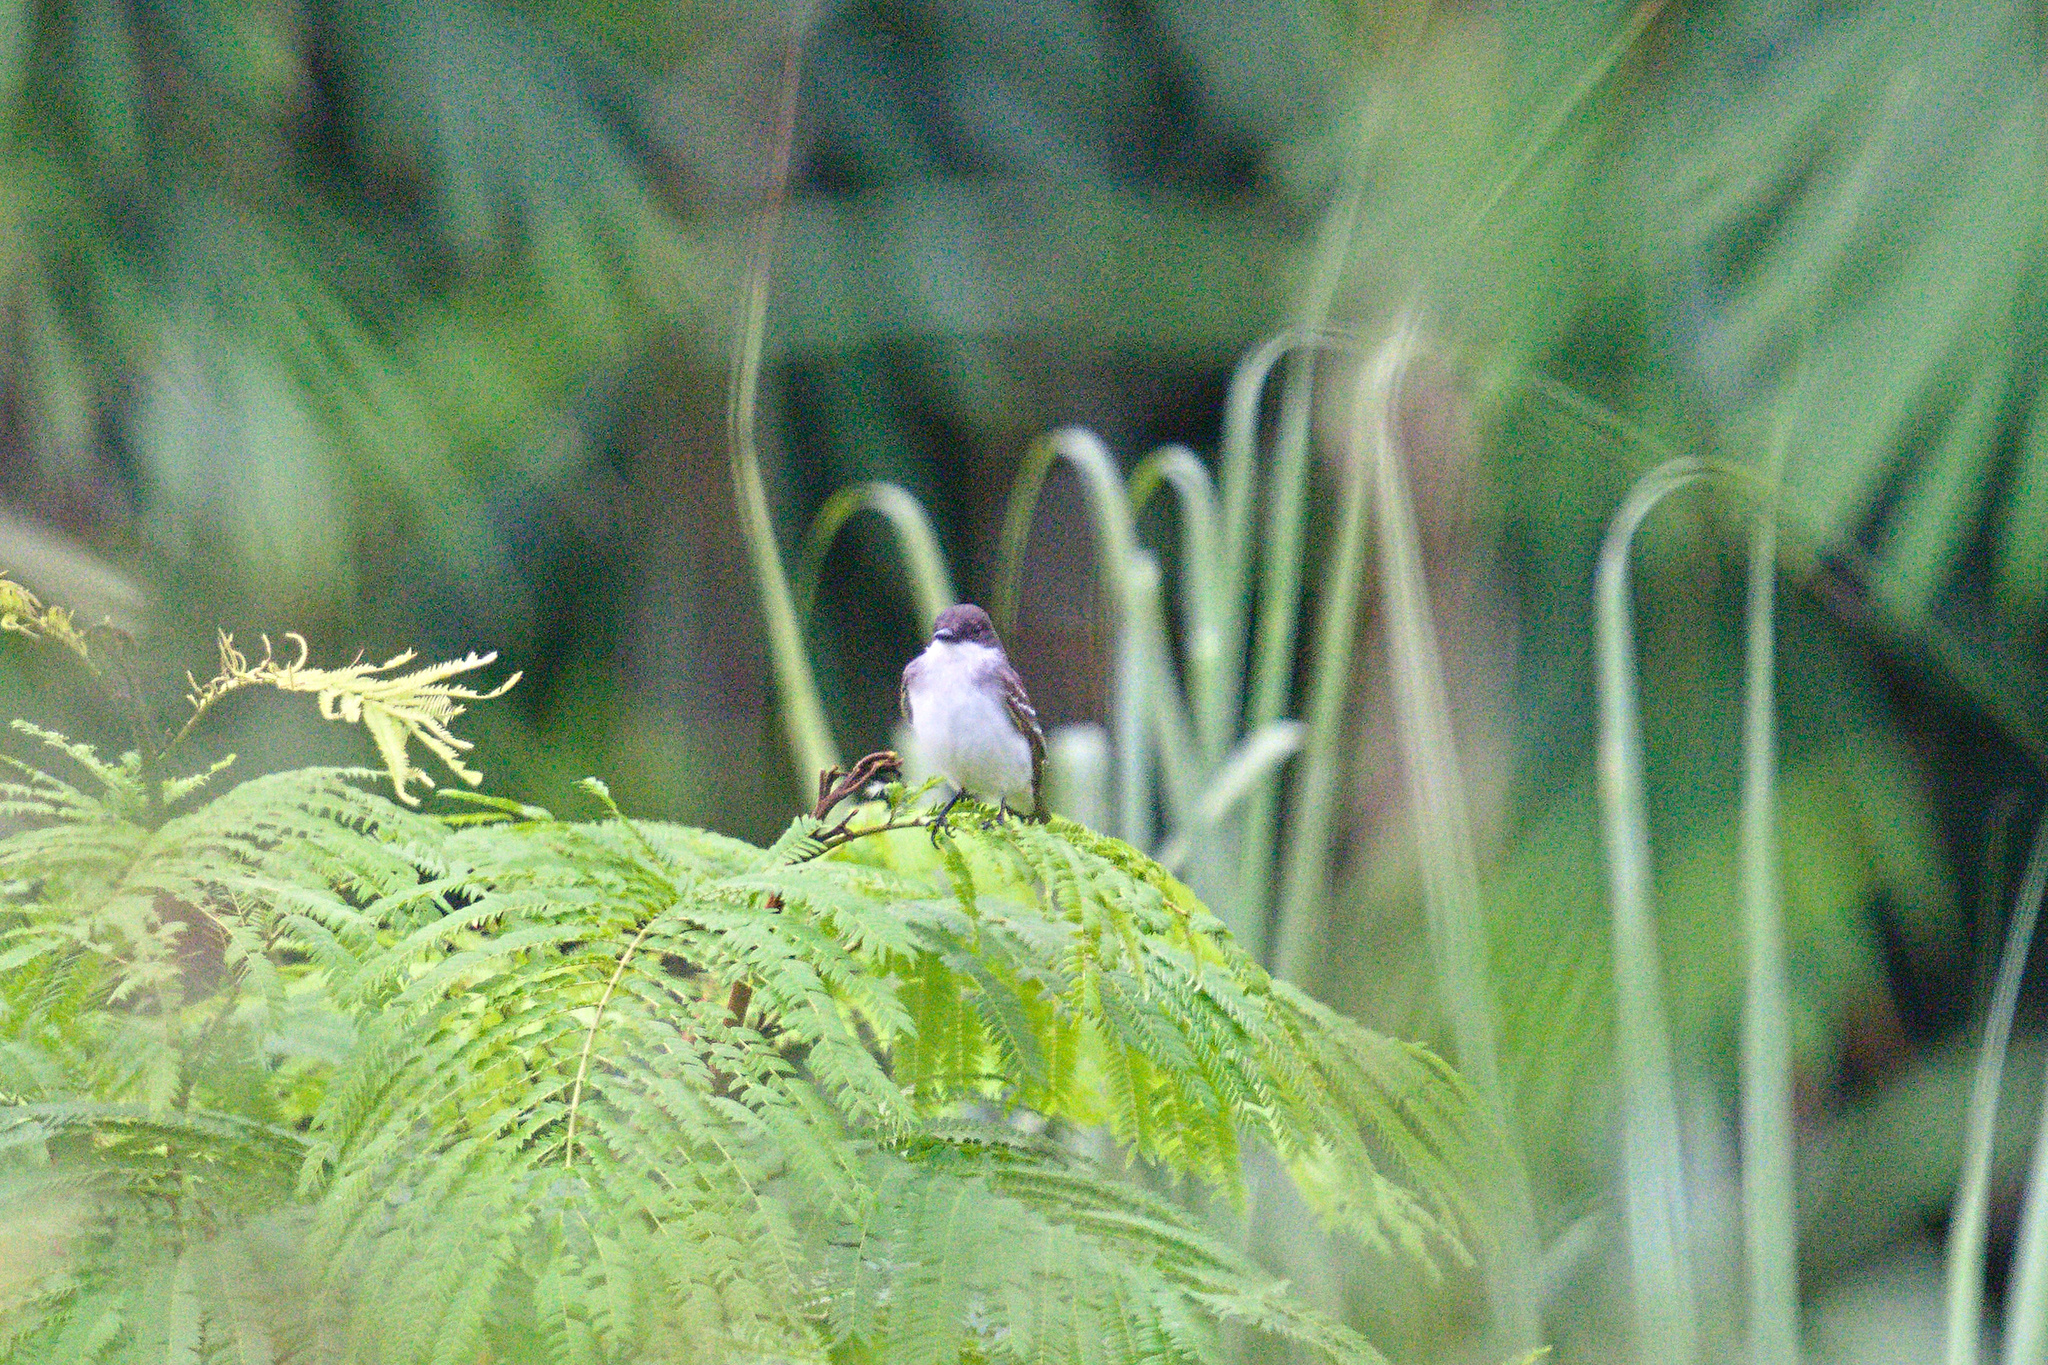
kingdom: Animalia
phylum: Chordata
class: Aves
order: Passeriformes
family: Tyrannidae
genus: Tyrannus
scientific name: Tyrannus tyrannus
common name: Eastern kingbird
